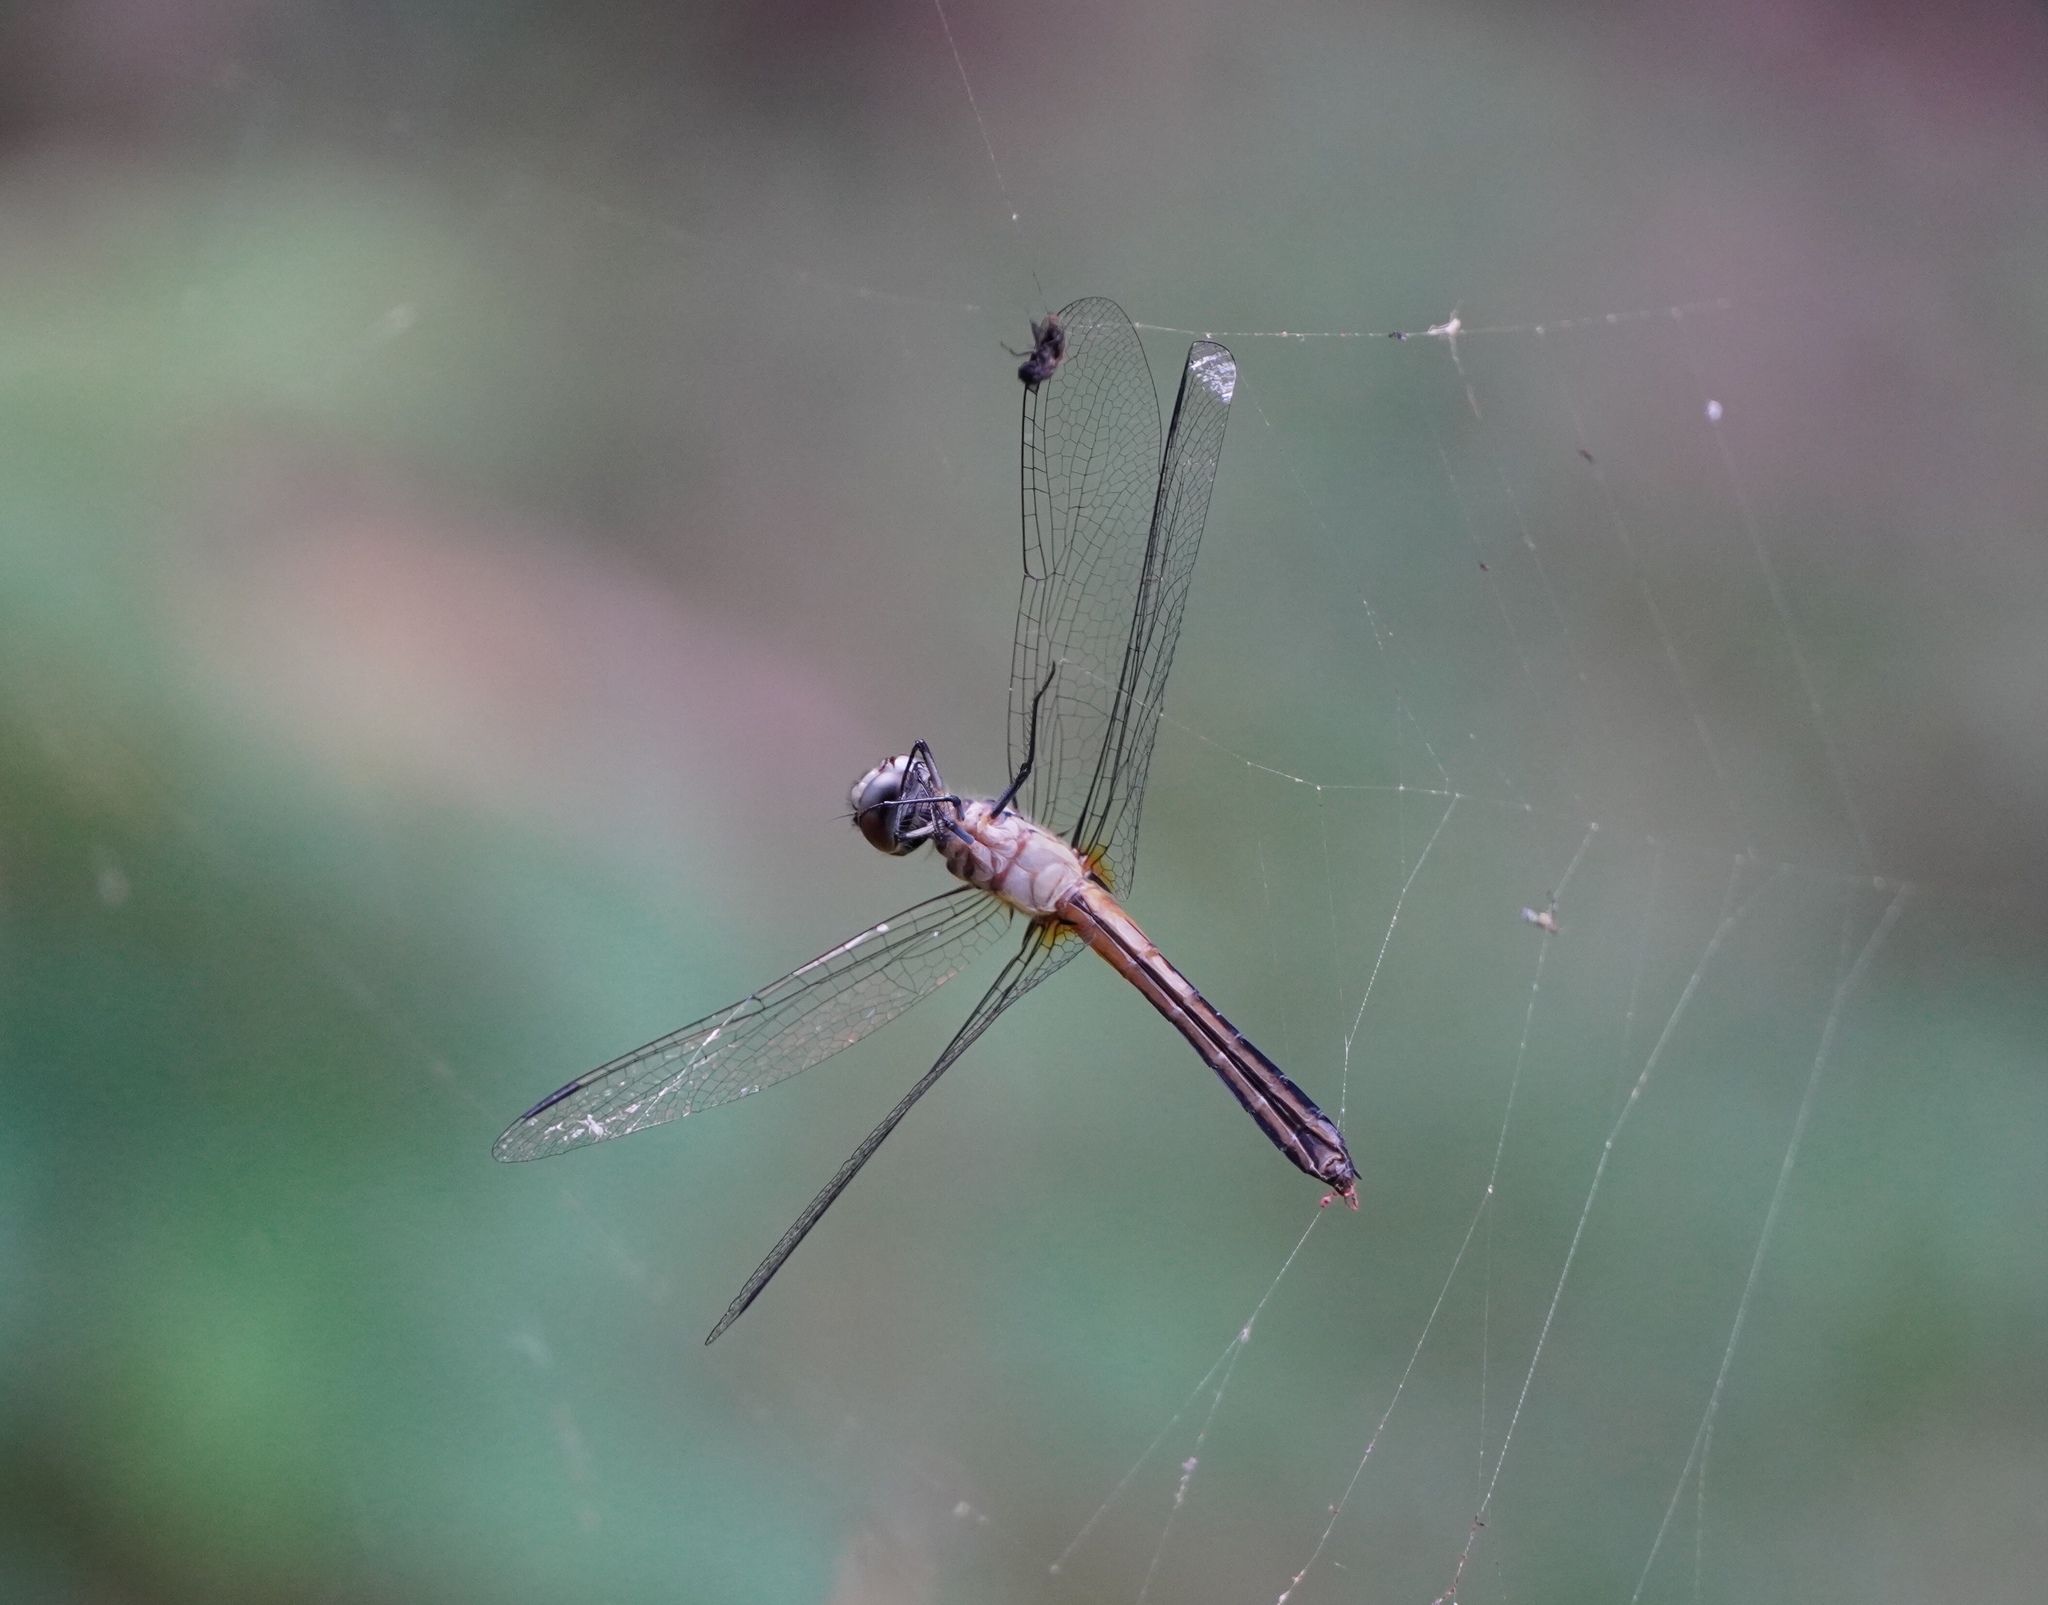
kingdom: Animalia
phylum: Arthropoda
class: Insecta
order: Odonata
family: Libellulidae
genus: Pachydiplax
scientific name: Pachydiplax longipennis
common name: Blue dasher
